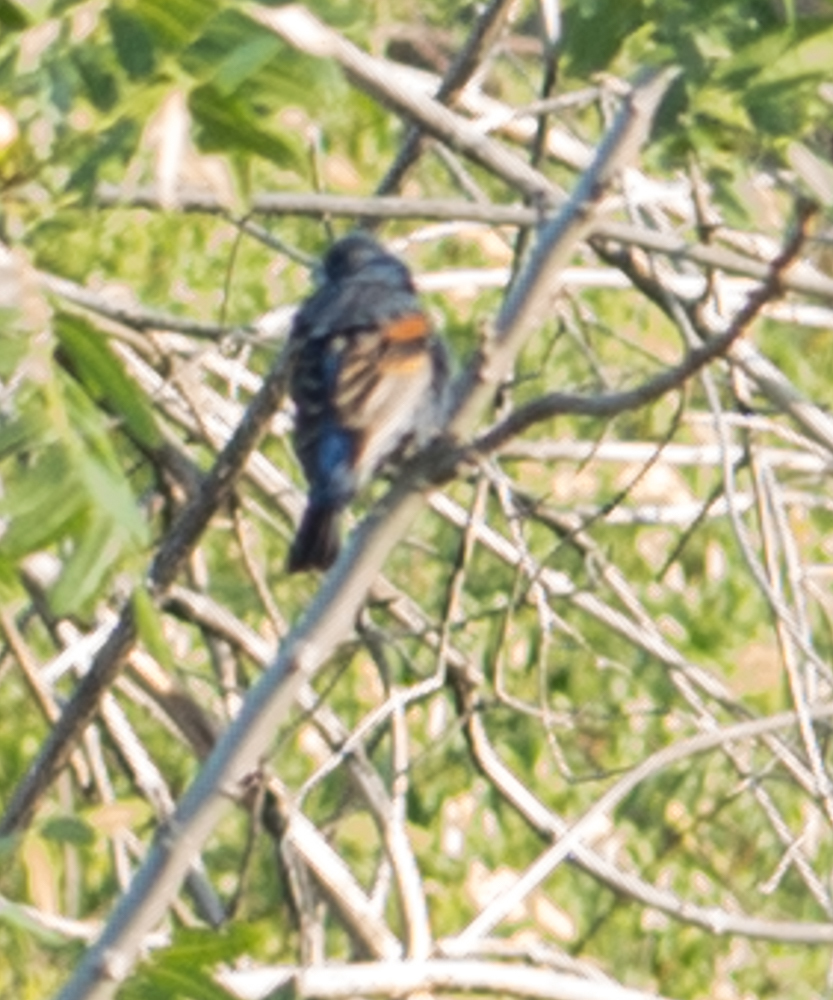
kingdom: Animalia
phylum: Chordata
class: Aves
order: Passeriformes
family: Cardinalidae
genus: Passerina
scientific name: Passerina caerulea
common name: Blue grosbeak
